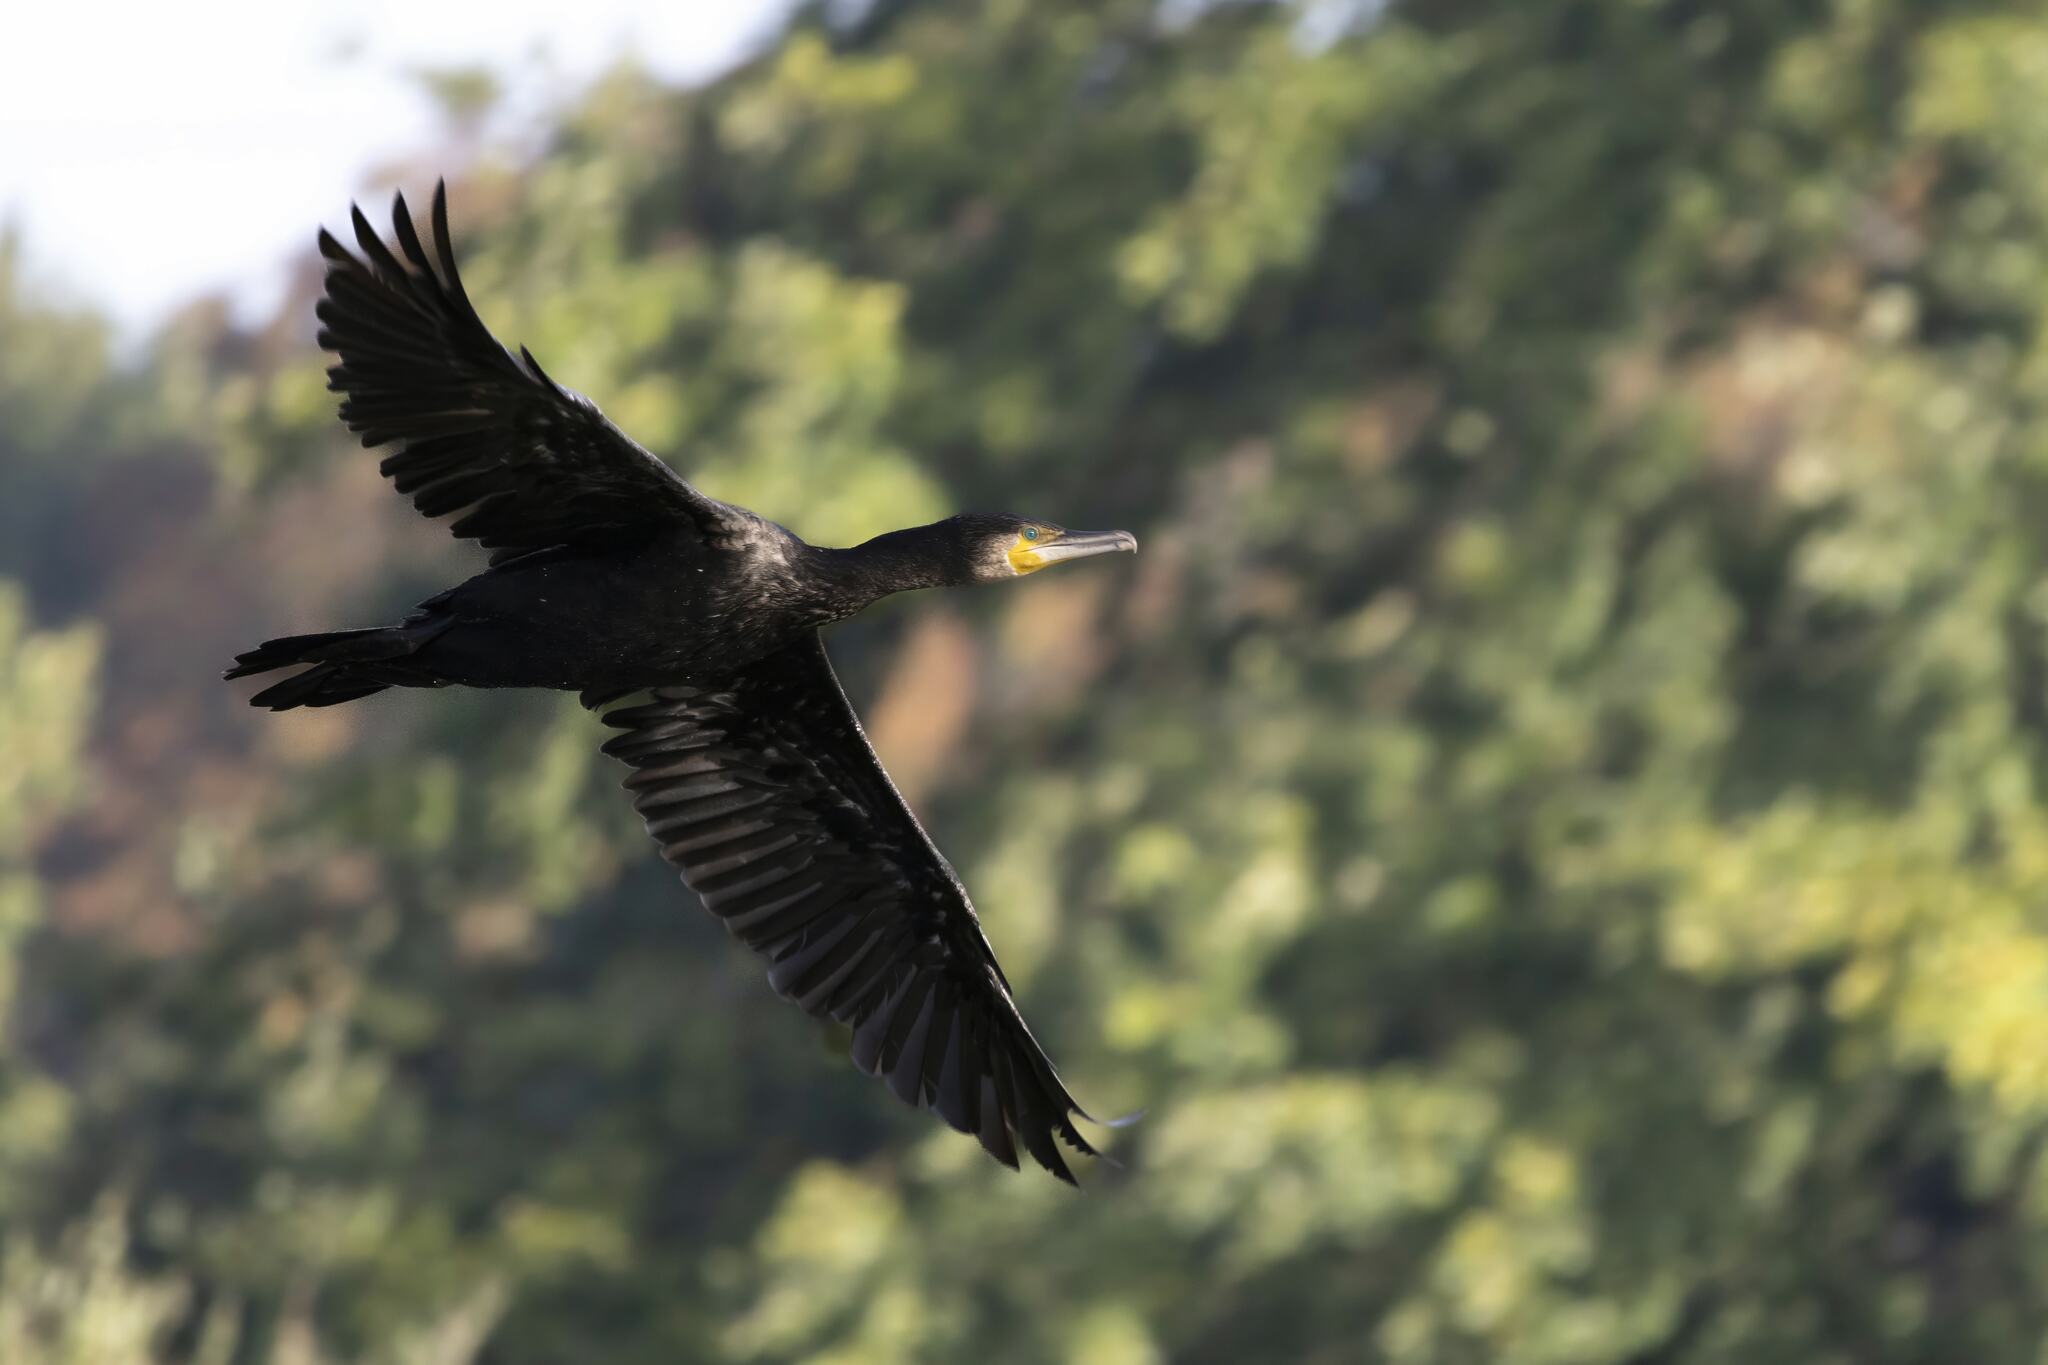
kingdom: Animalia
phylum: Chordata
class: Aves
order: Suliformes
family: Phalacrocoracidae
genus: Phalacrocorax
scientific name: Phalacrocorax carbo
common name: Great cormorant
